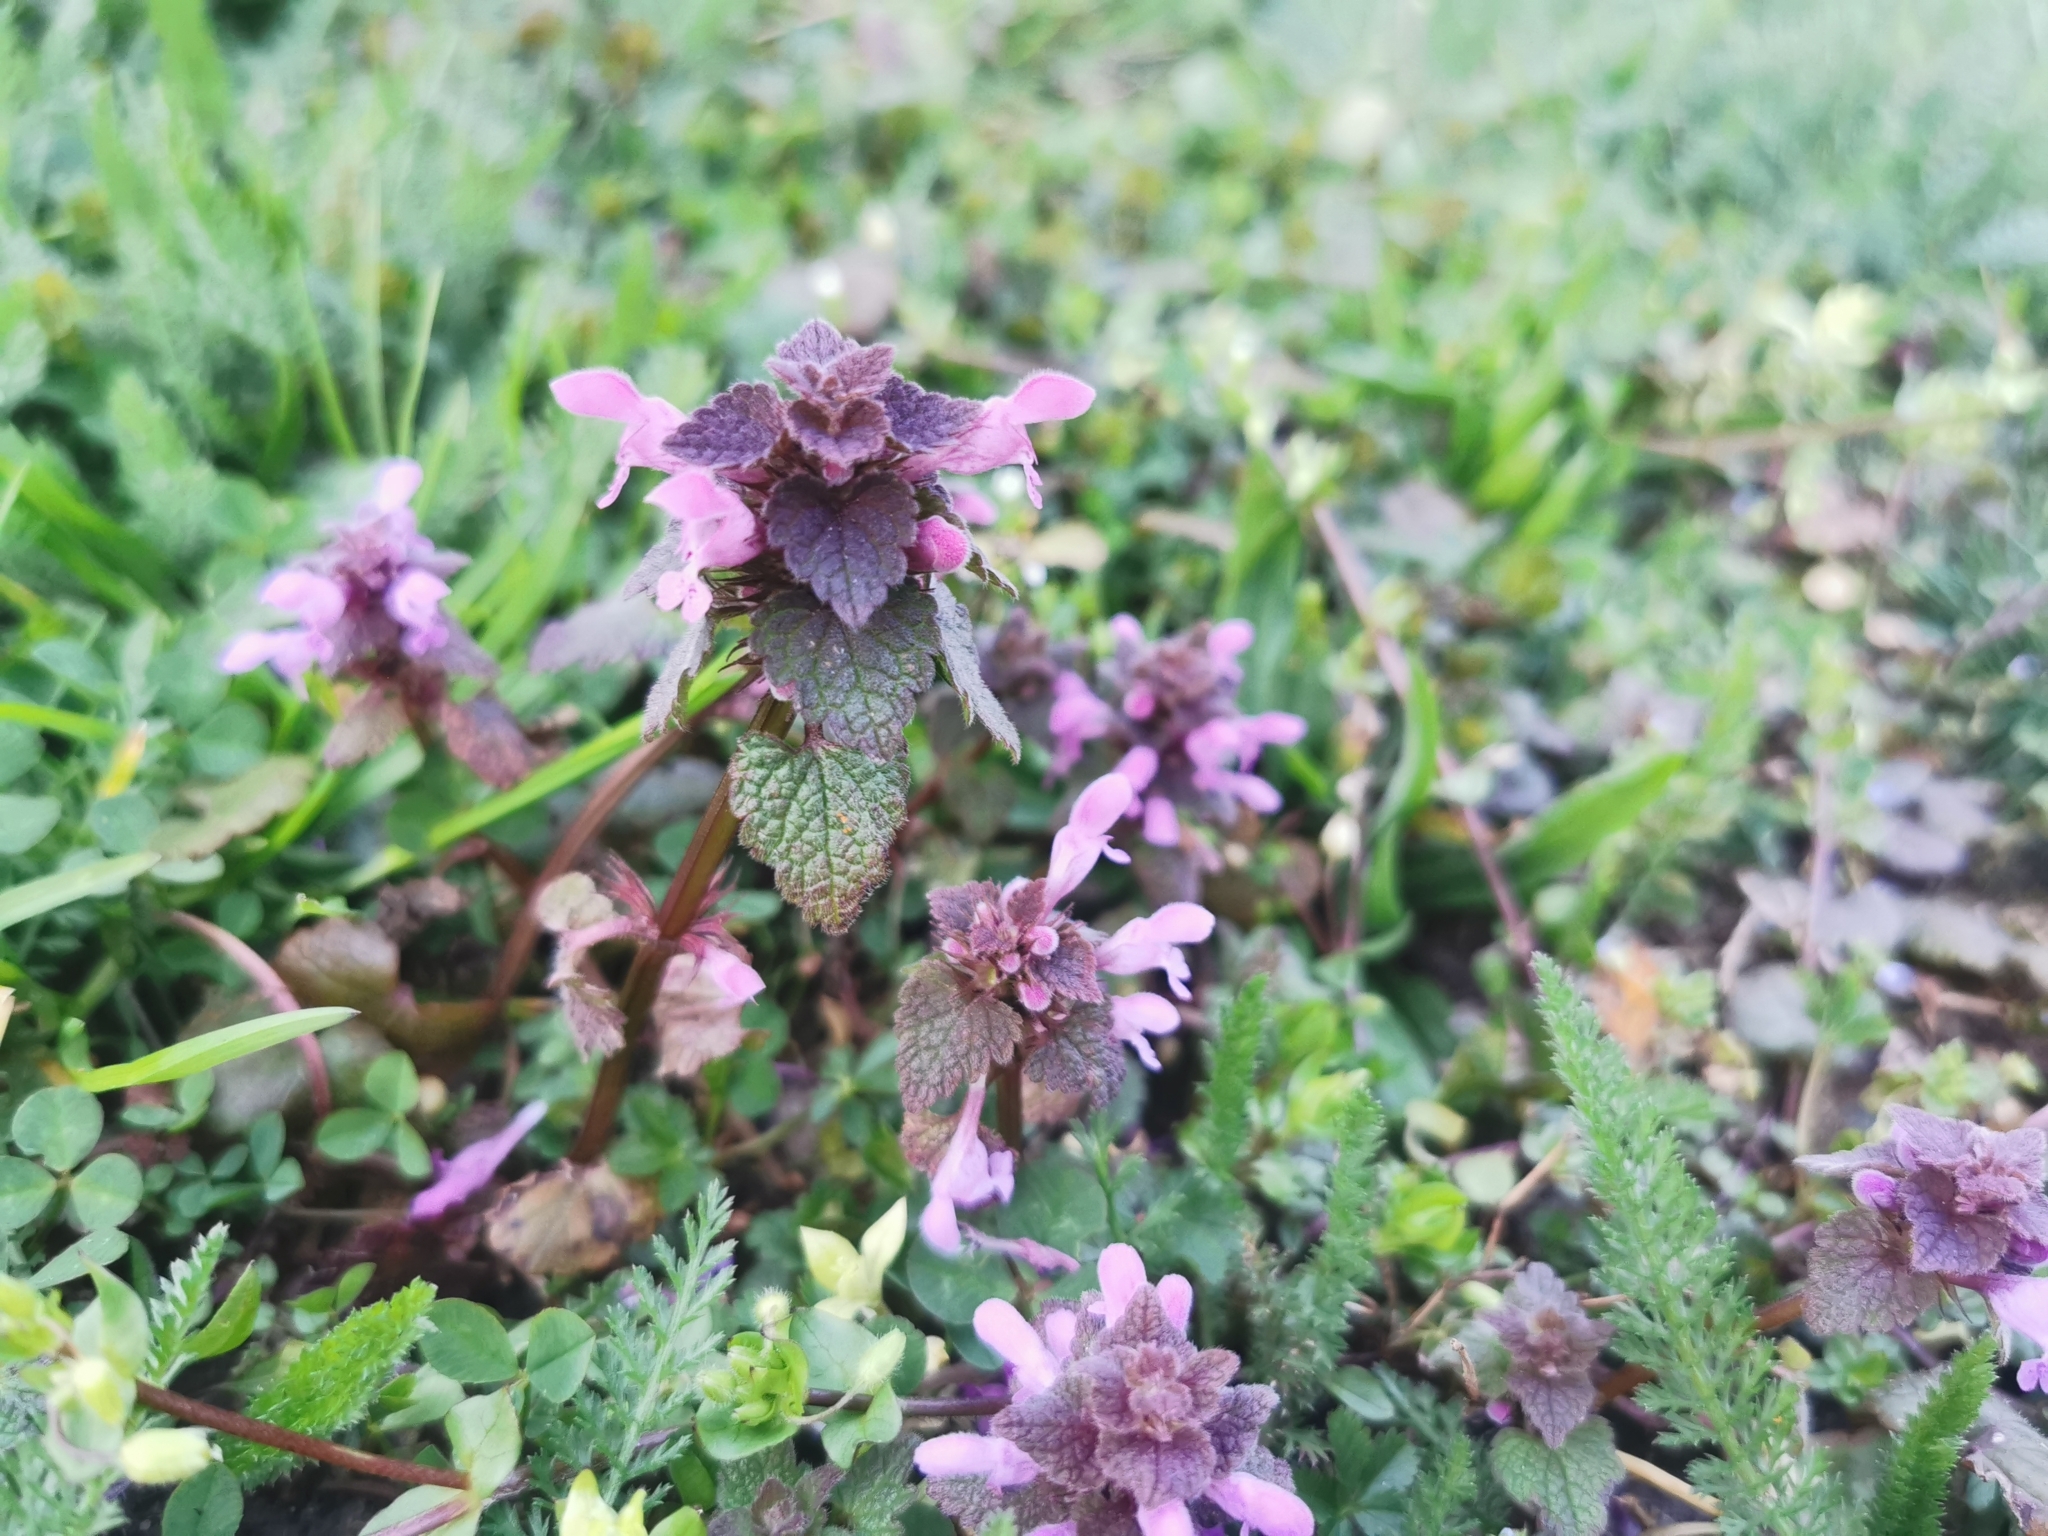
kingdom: Plantae
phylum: Tracheophyta
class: Magnoliopsida
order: Lamiales
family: Lamiaceae
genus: Lamium
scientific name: Lamium purpureum
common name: Red dead-nettle
